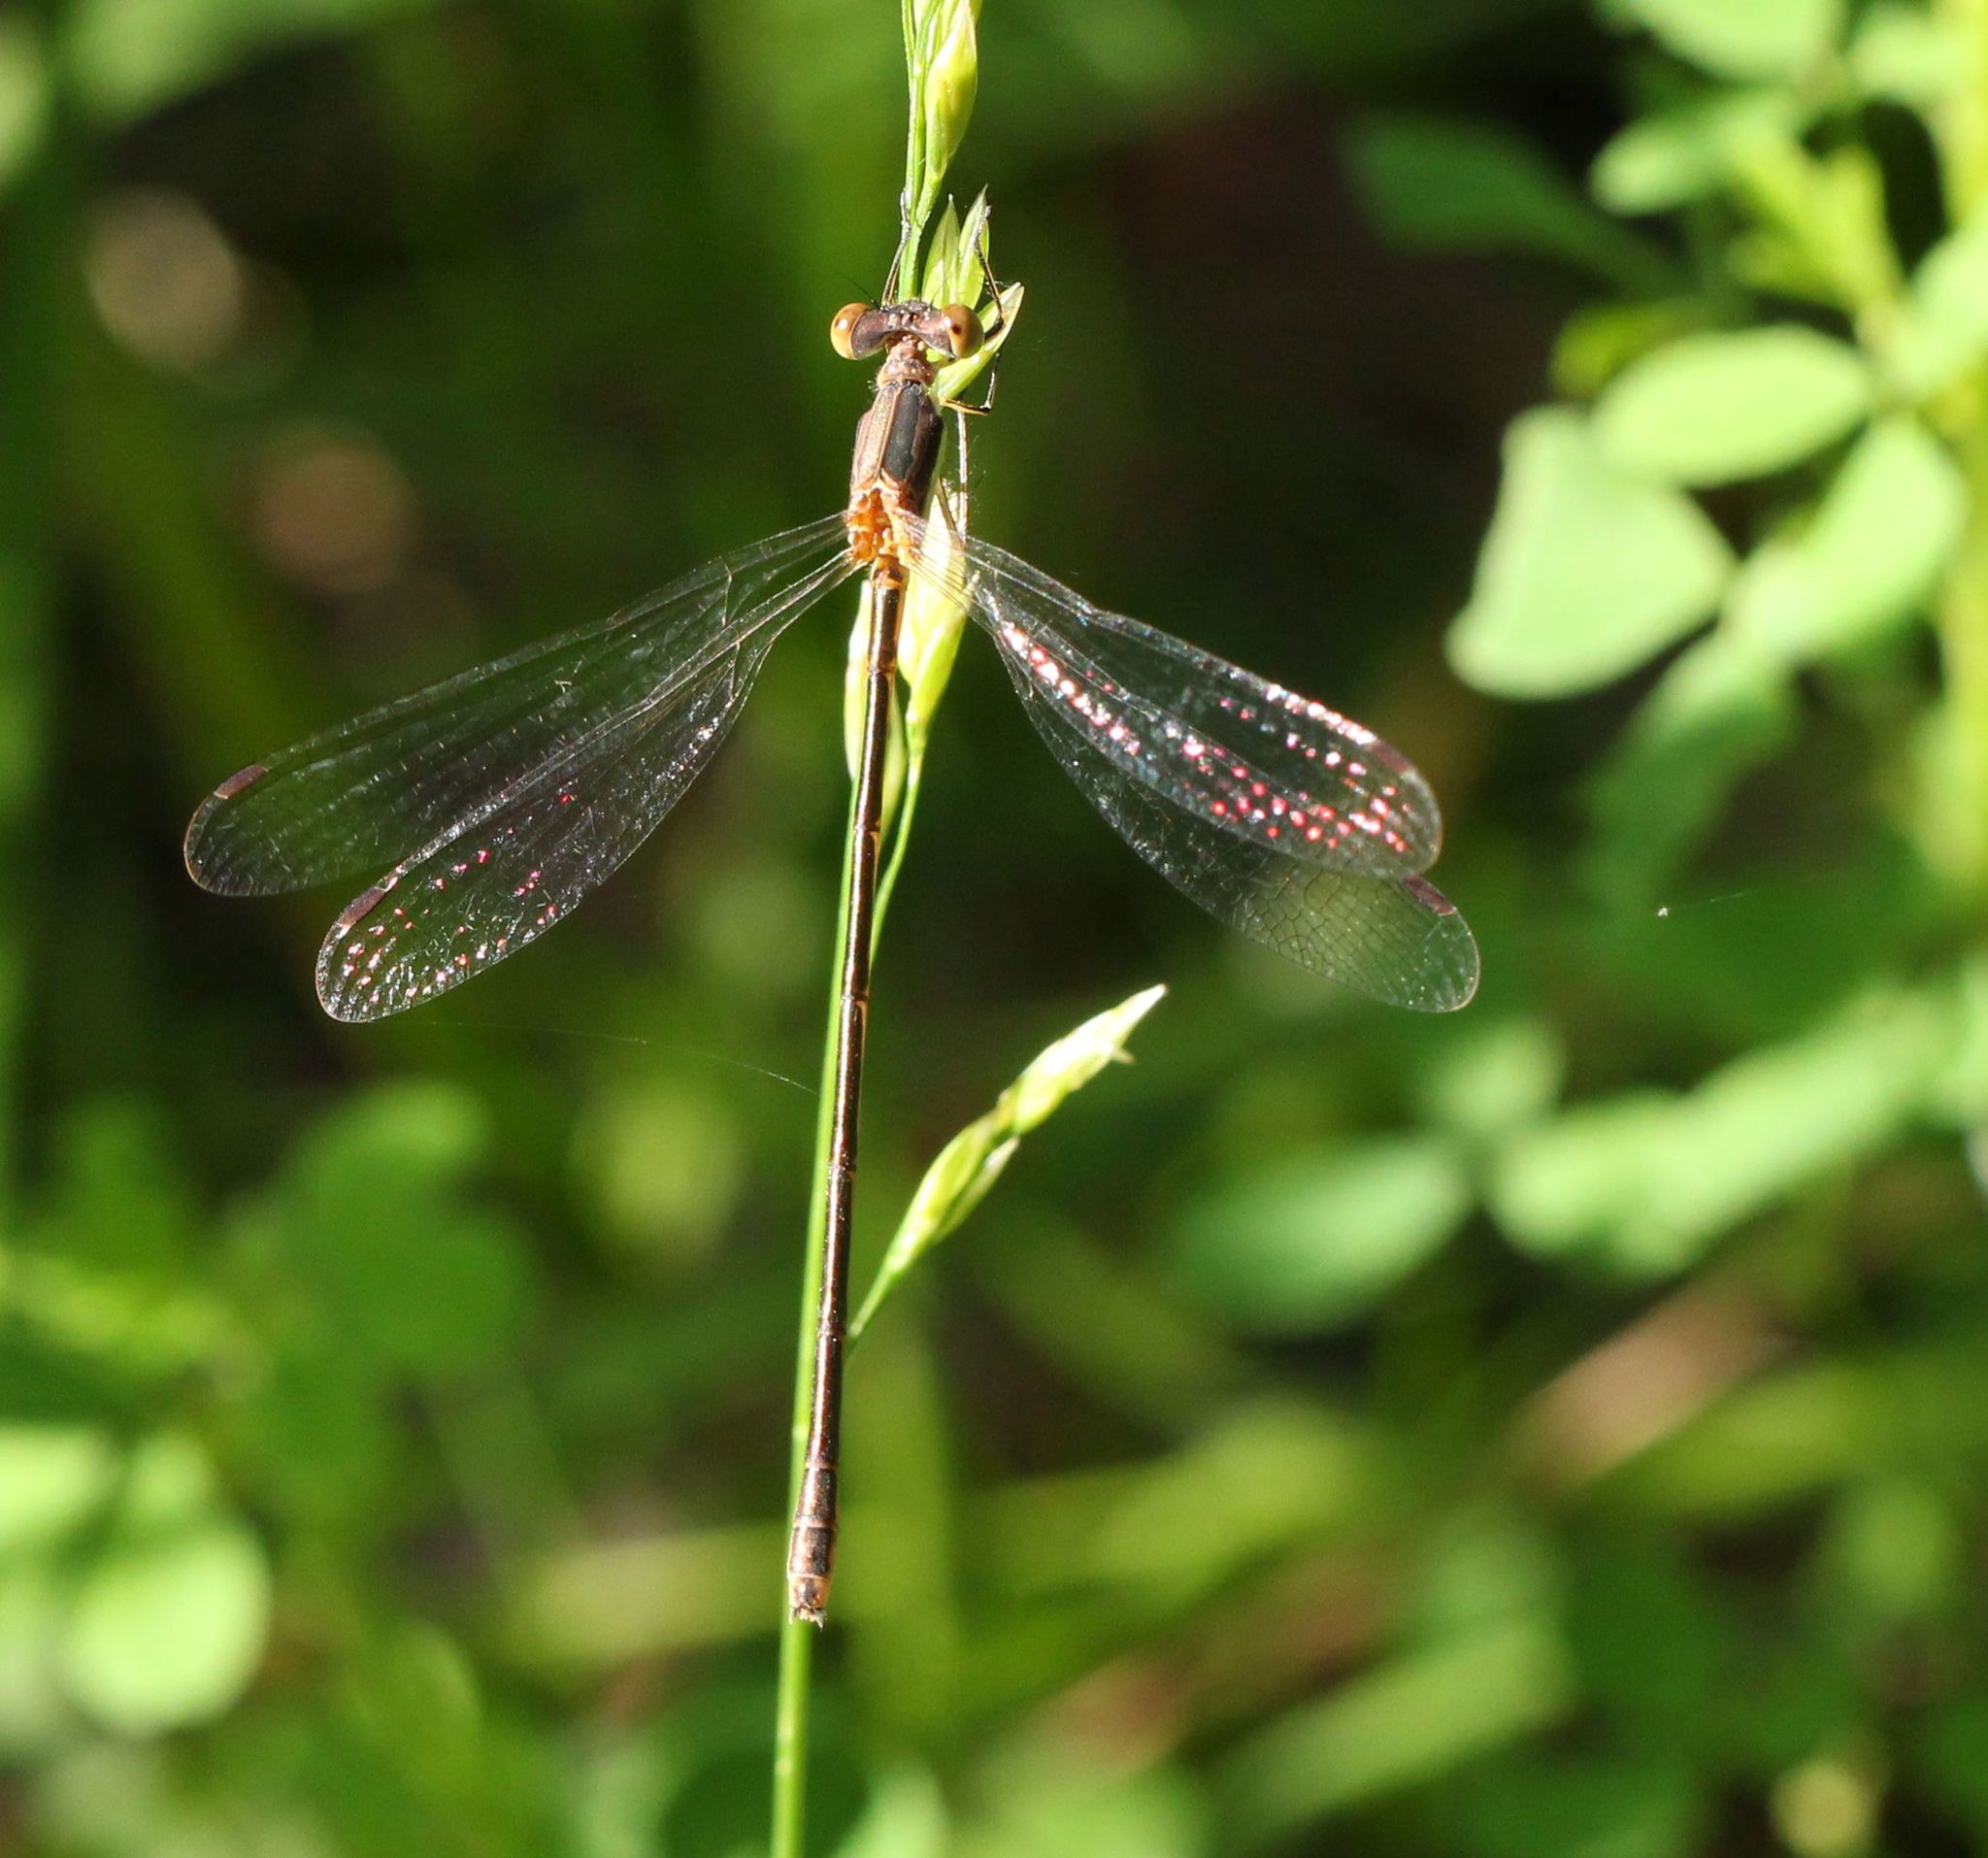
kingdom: Animalia
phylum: Arthropoda
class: Insecta
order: Odonata
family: Lestidae
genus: Lestes
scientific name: Lestes rectangularis
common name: Slender spreadwing
